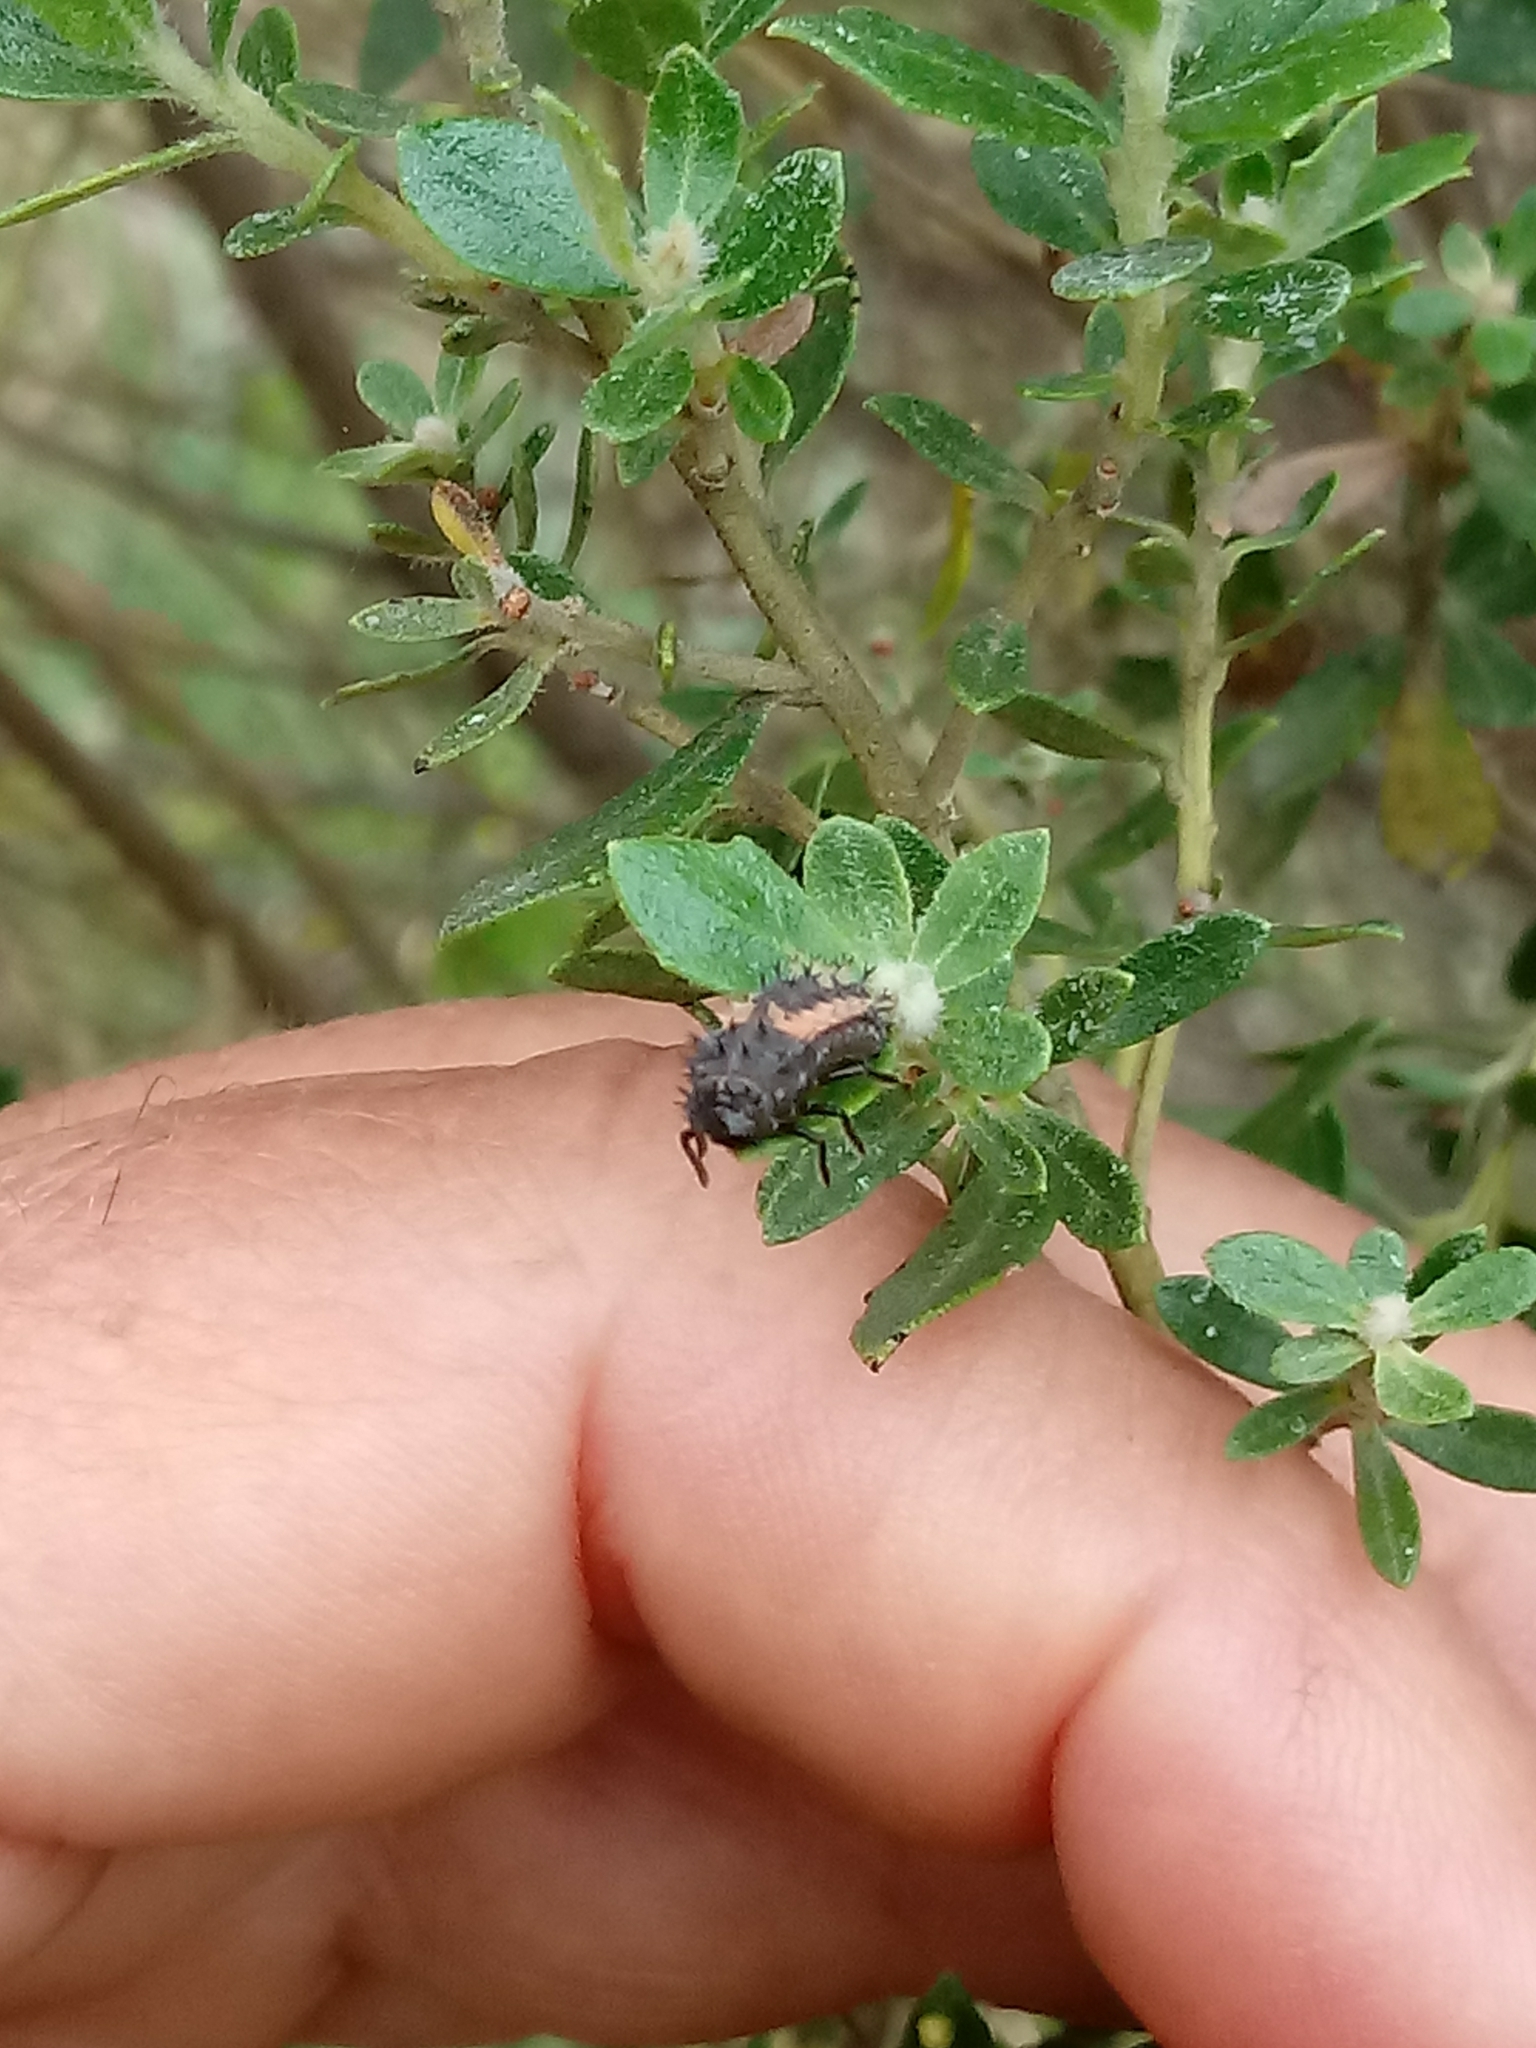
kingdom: Animalia
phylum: Arthropoda
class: Insecta
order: Coleoptera
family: Coccinellidae
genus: Harmonia
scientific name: Harmonia axyridis
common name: Harlequin ladybird
